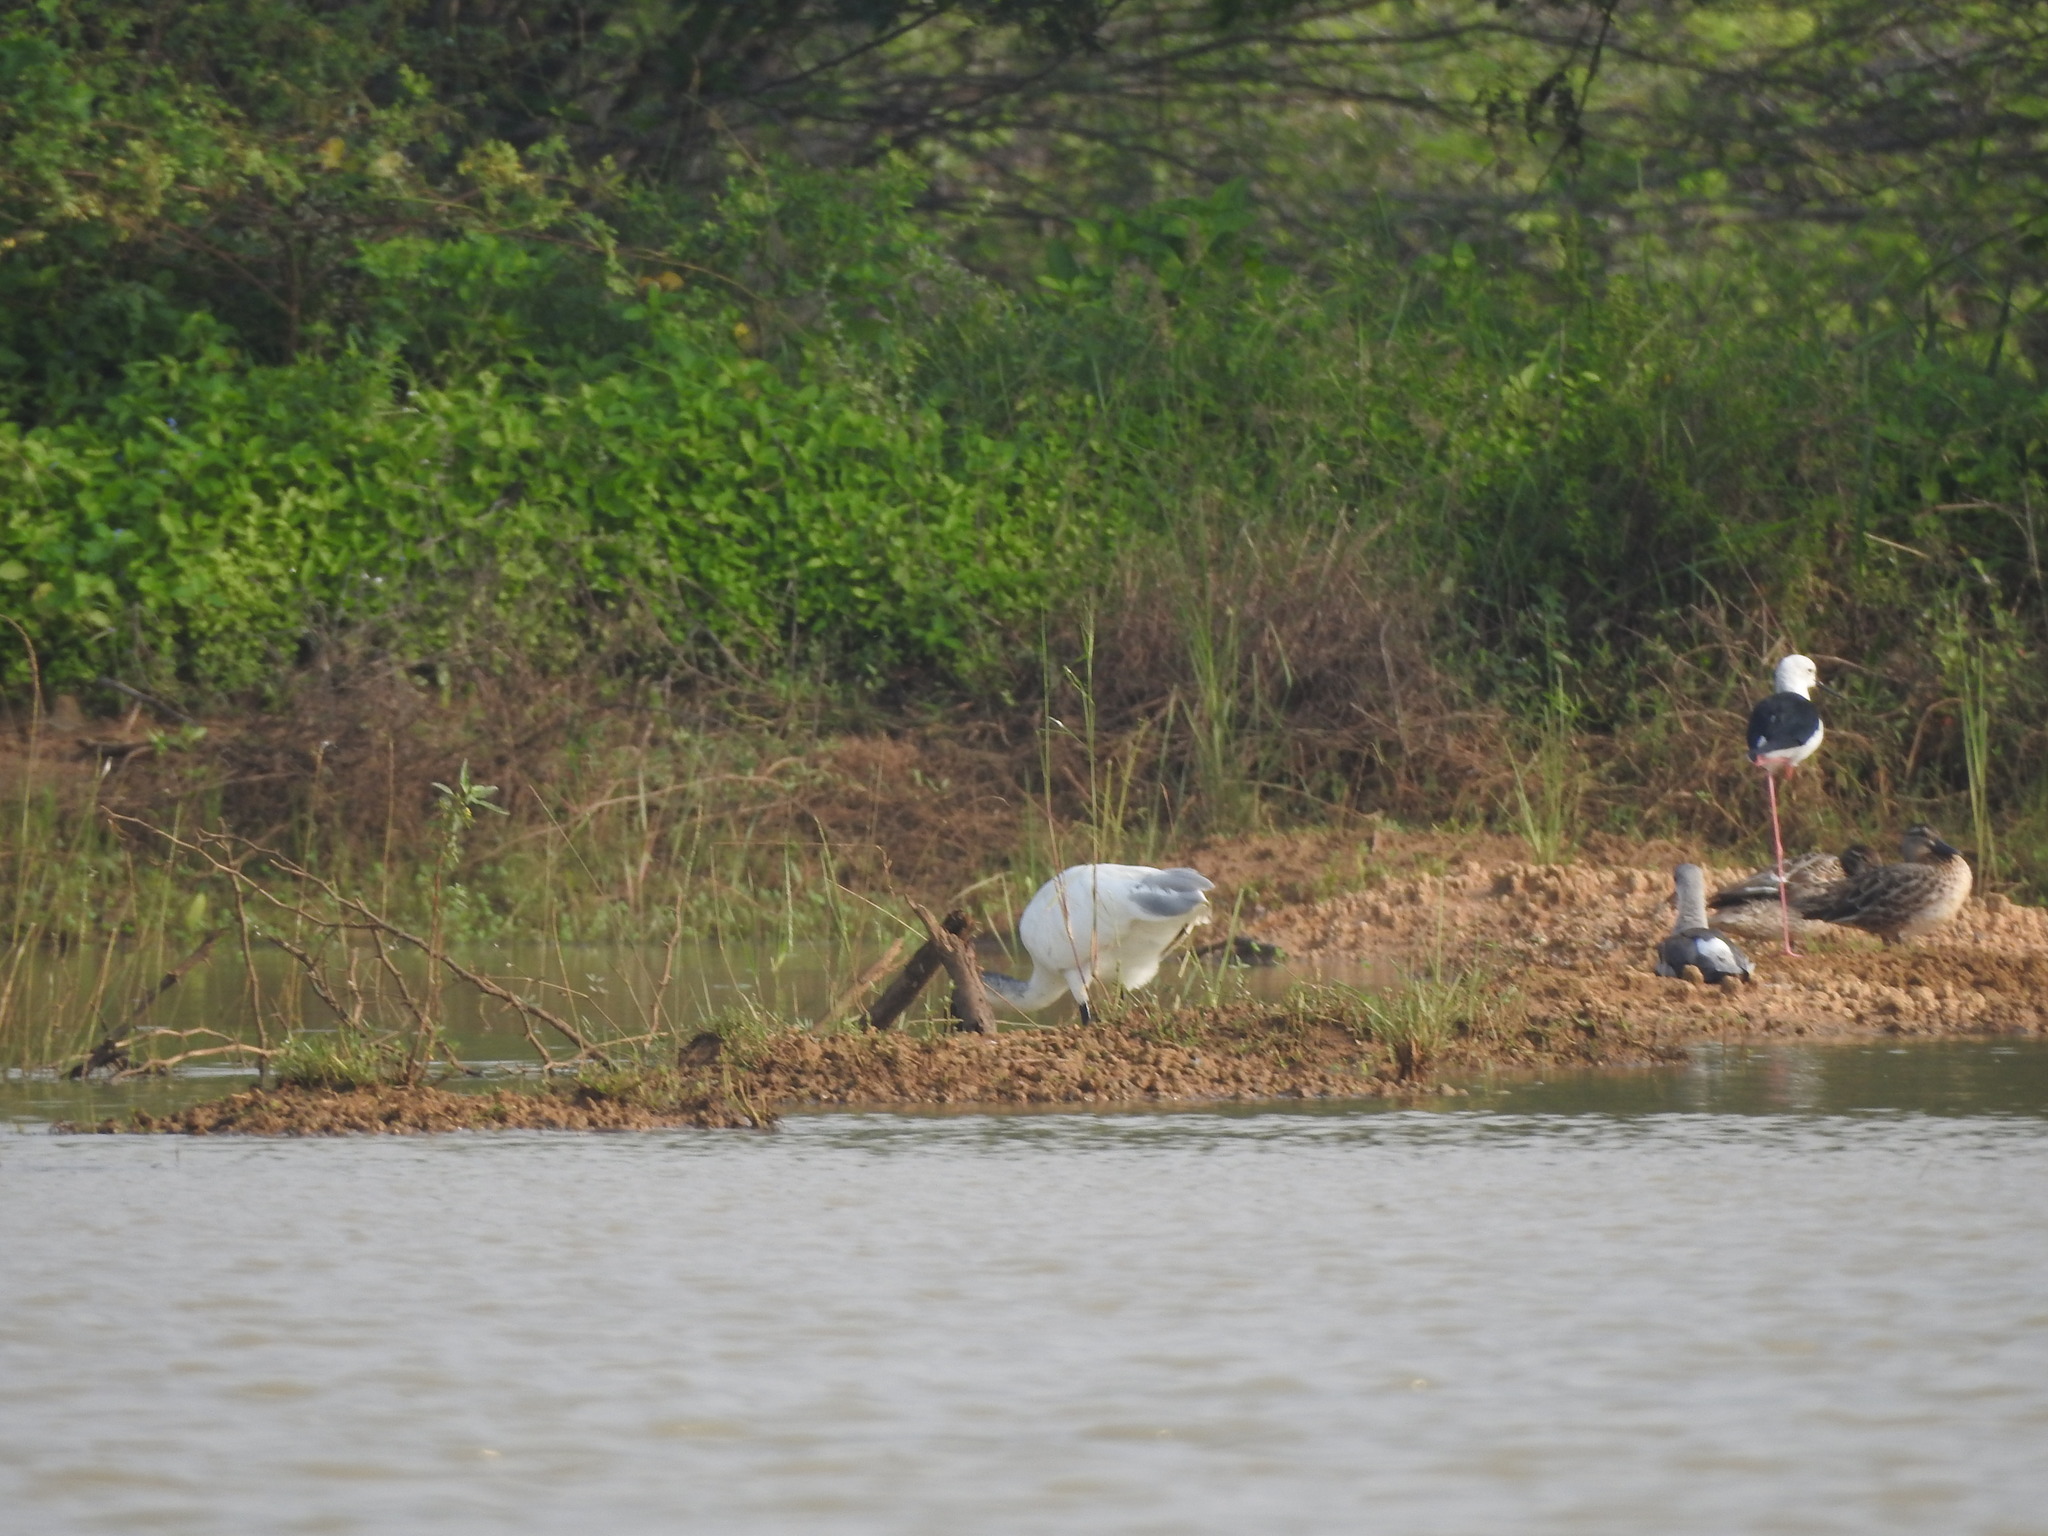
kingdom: Animalia
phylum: Chordata
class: Aves
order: Pelecaniformes
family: Threskiornithidae
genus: Threskiornis
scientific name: Threskiornis melanocephalus
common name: Black-headed ibis
